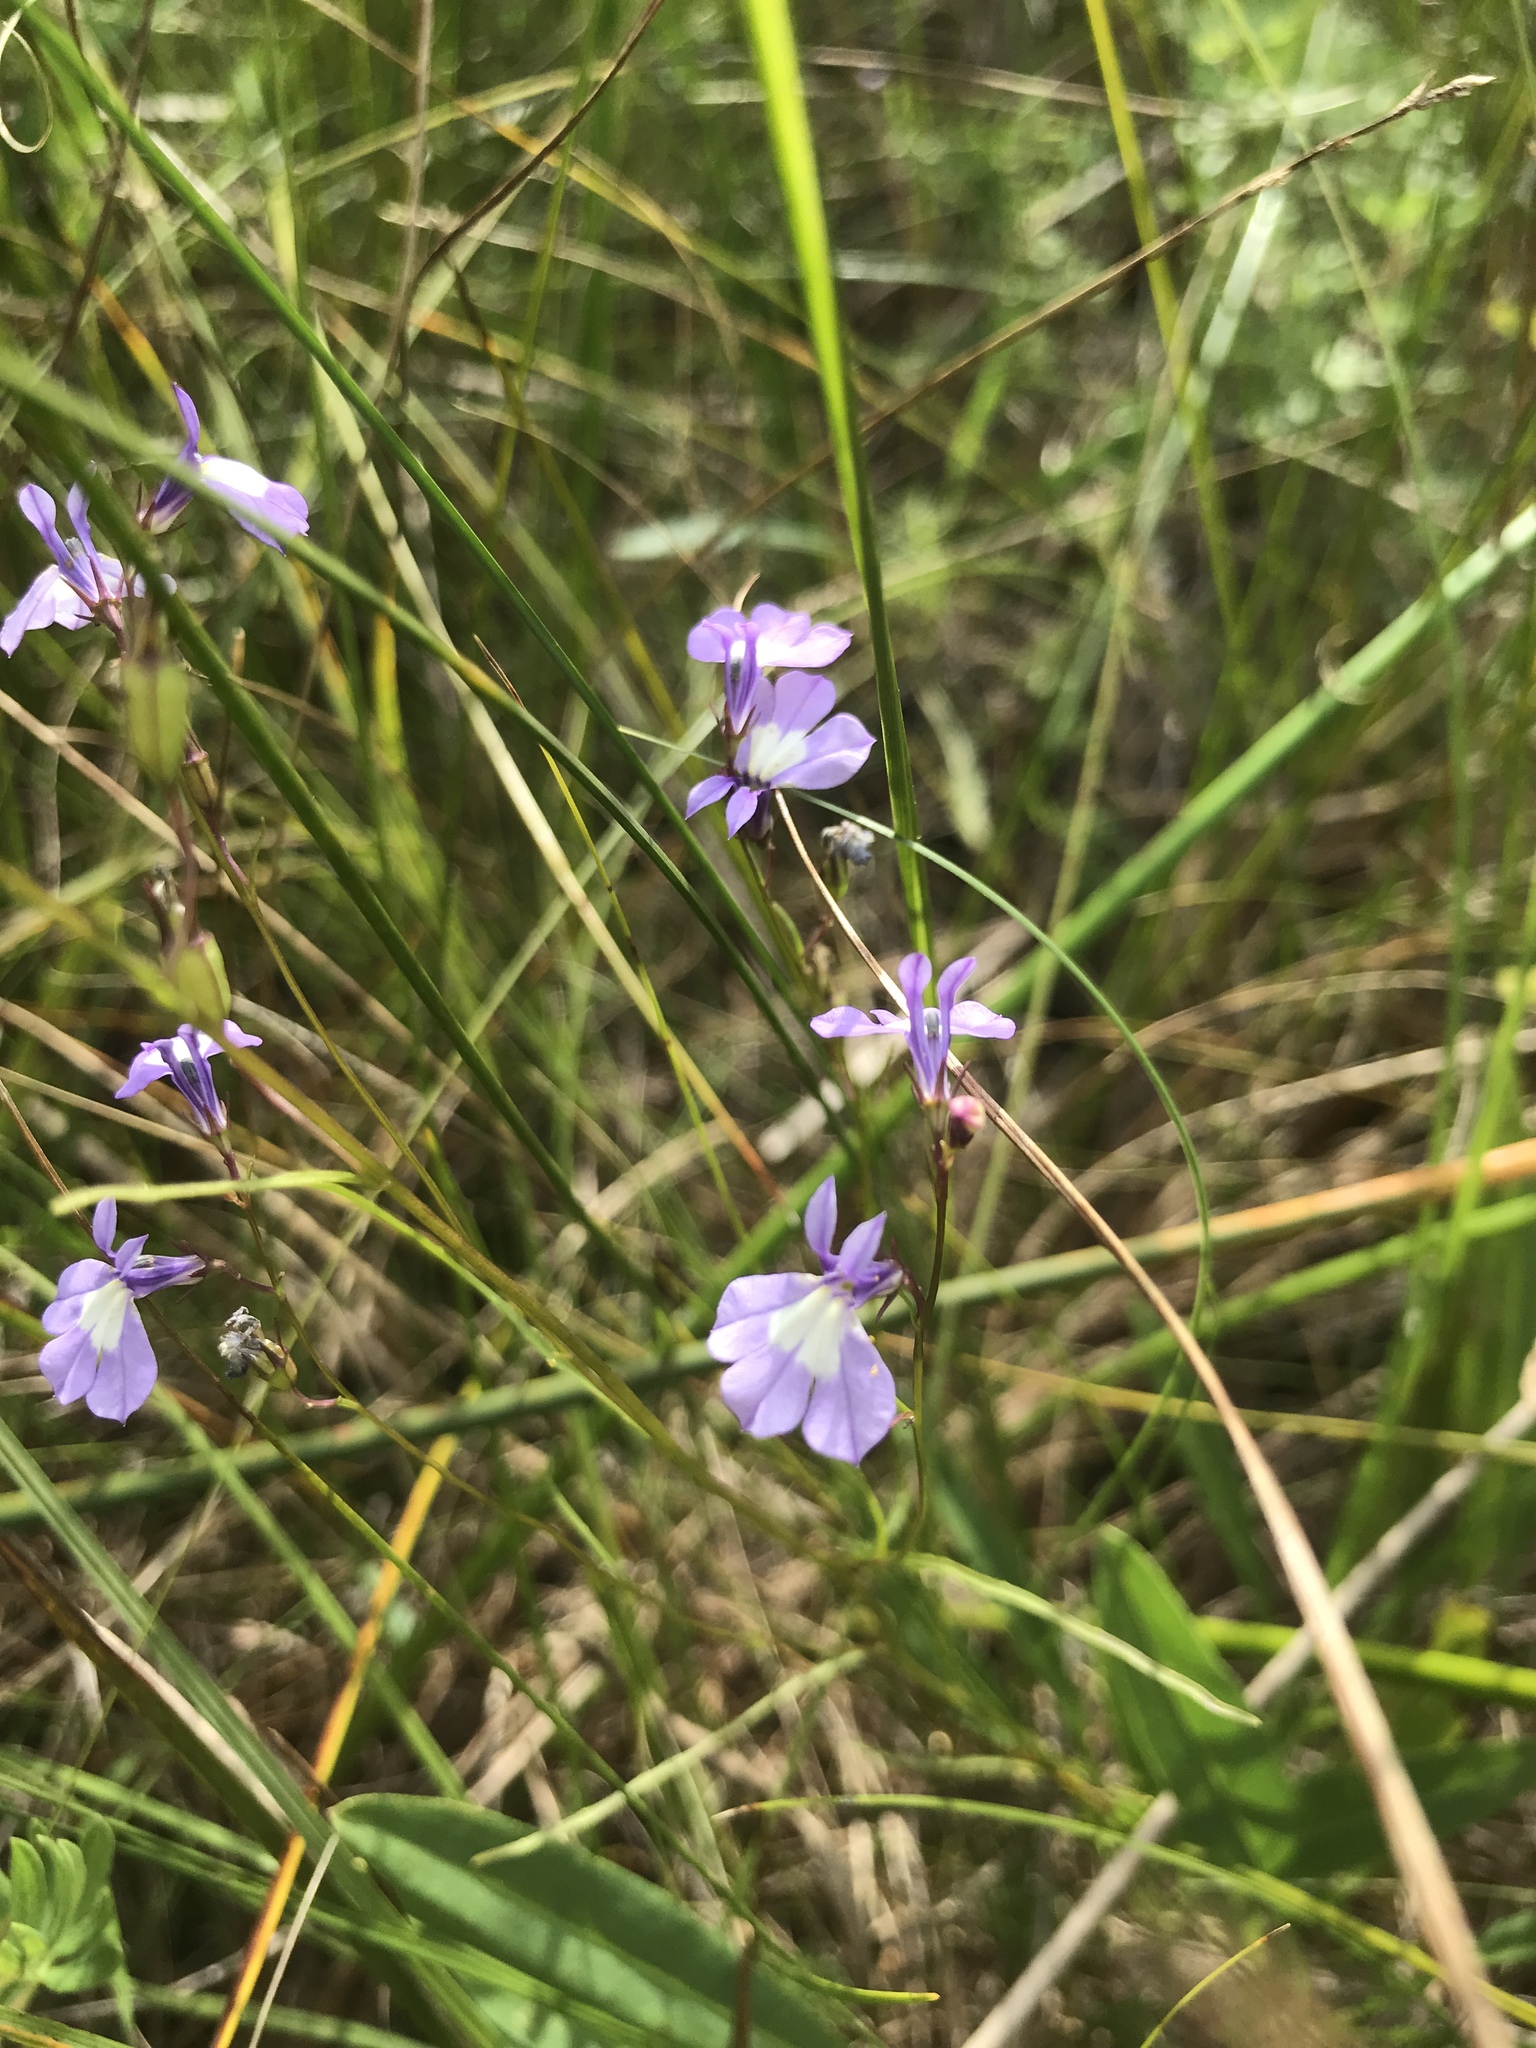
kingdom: Plantae
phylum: Tracheophyta
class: Magnoliopsida
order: Asterales
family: Campanulaceae
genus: Lobelia
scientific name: Lobelia kalmii
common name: Kalm's lobelia
